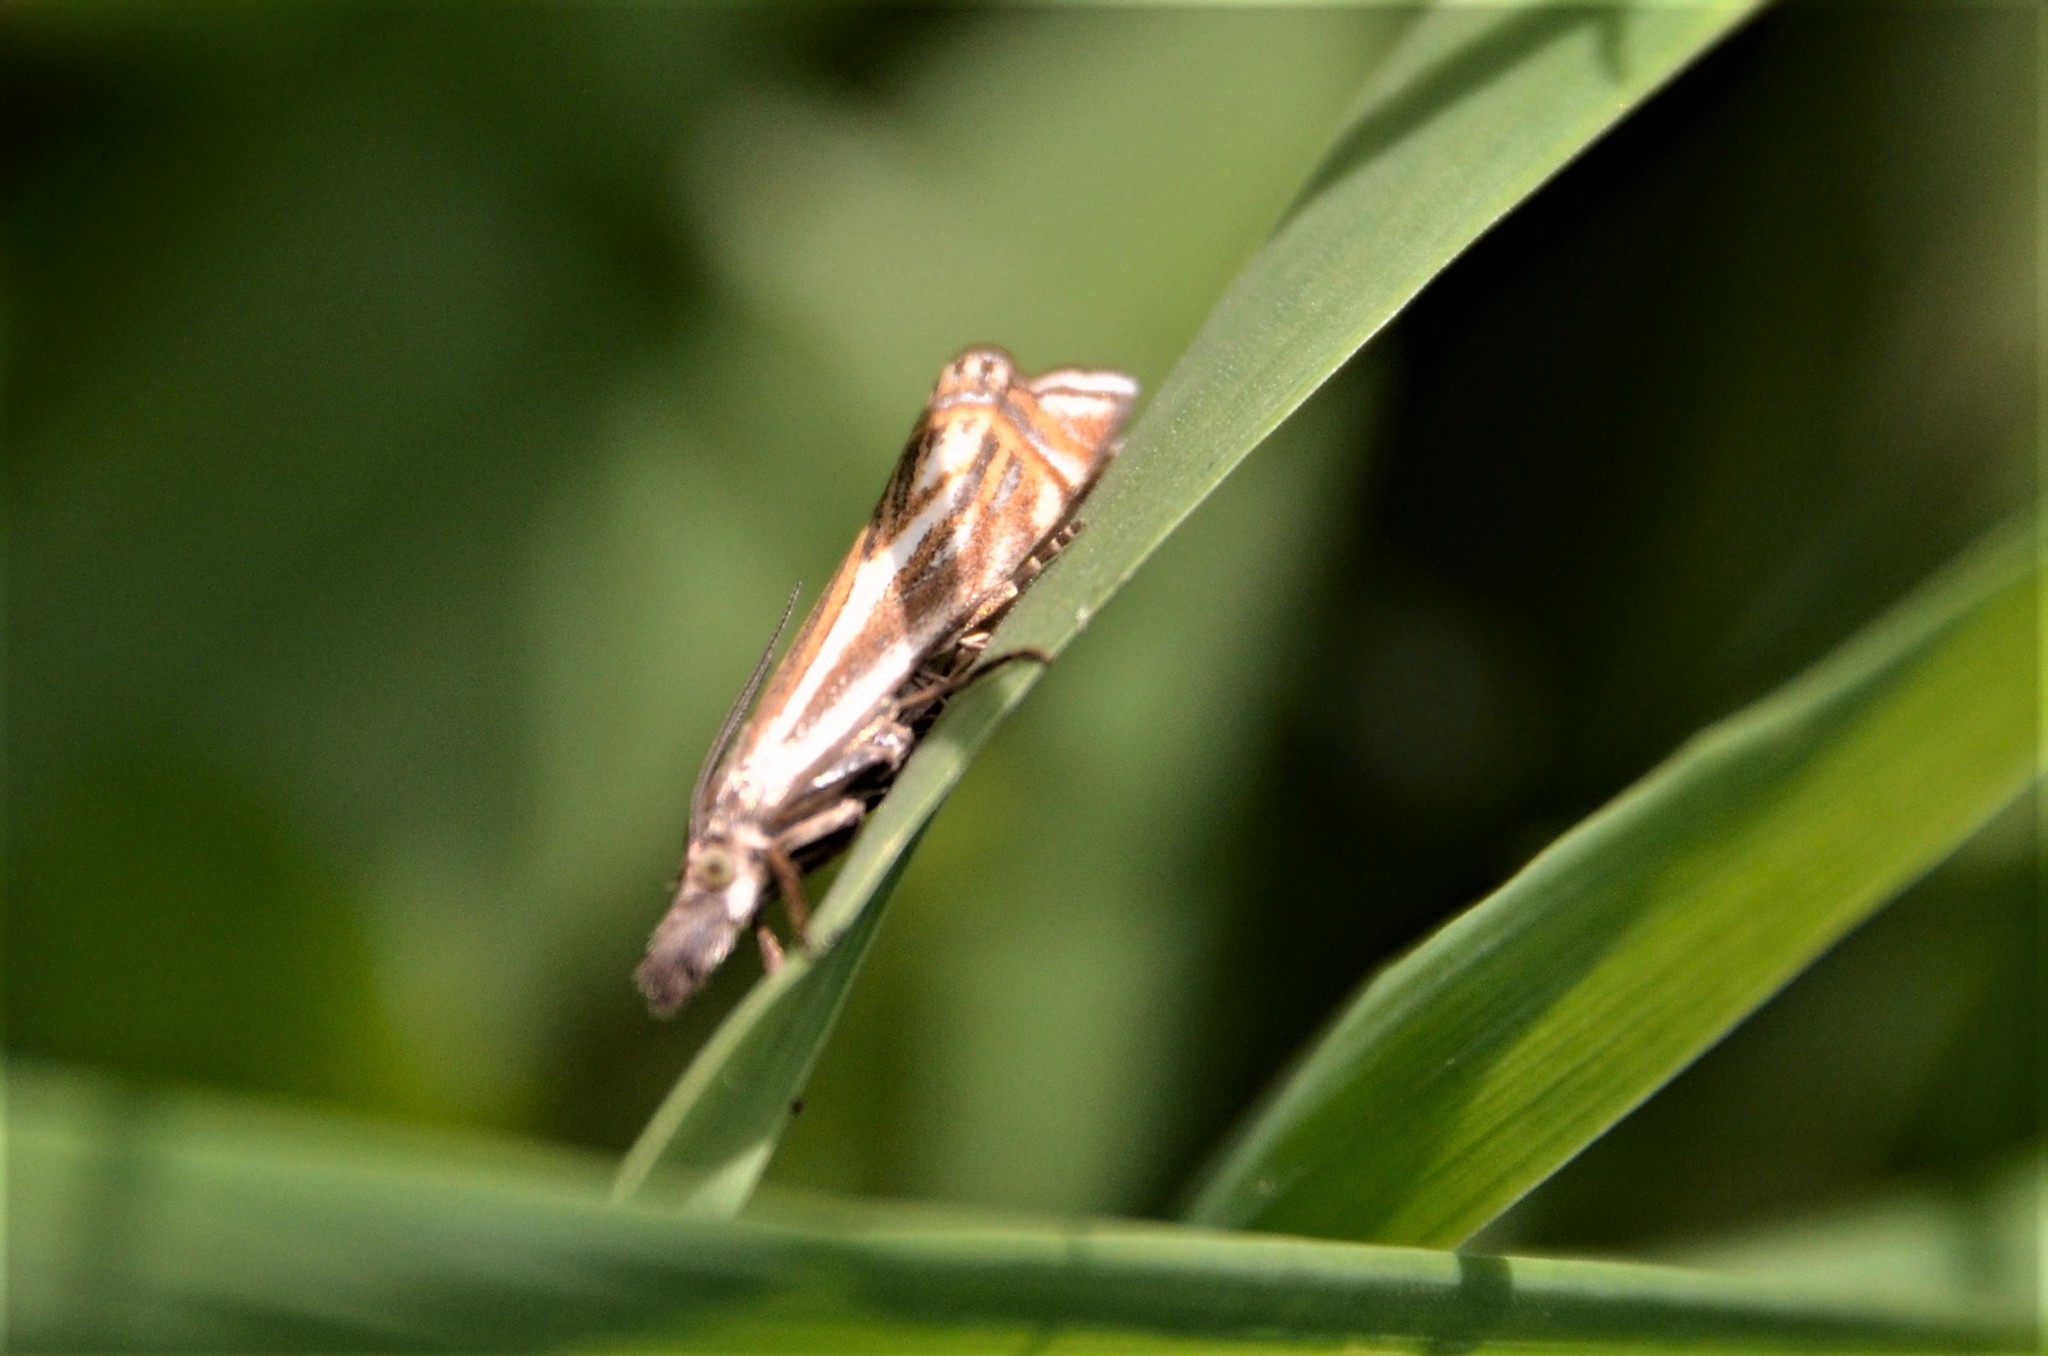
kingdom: Animalia
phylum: Arthropoda
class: Insecta
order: Lepidoptera
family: Crambidae
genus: Crambus
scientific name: Crambus nemorella
